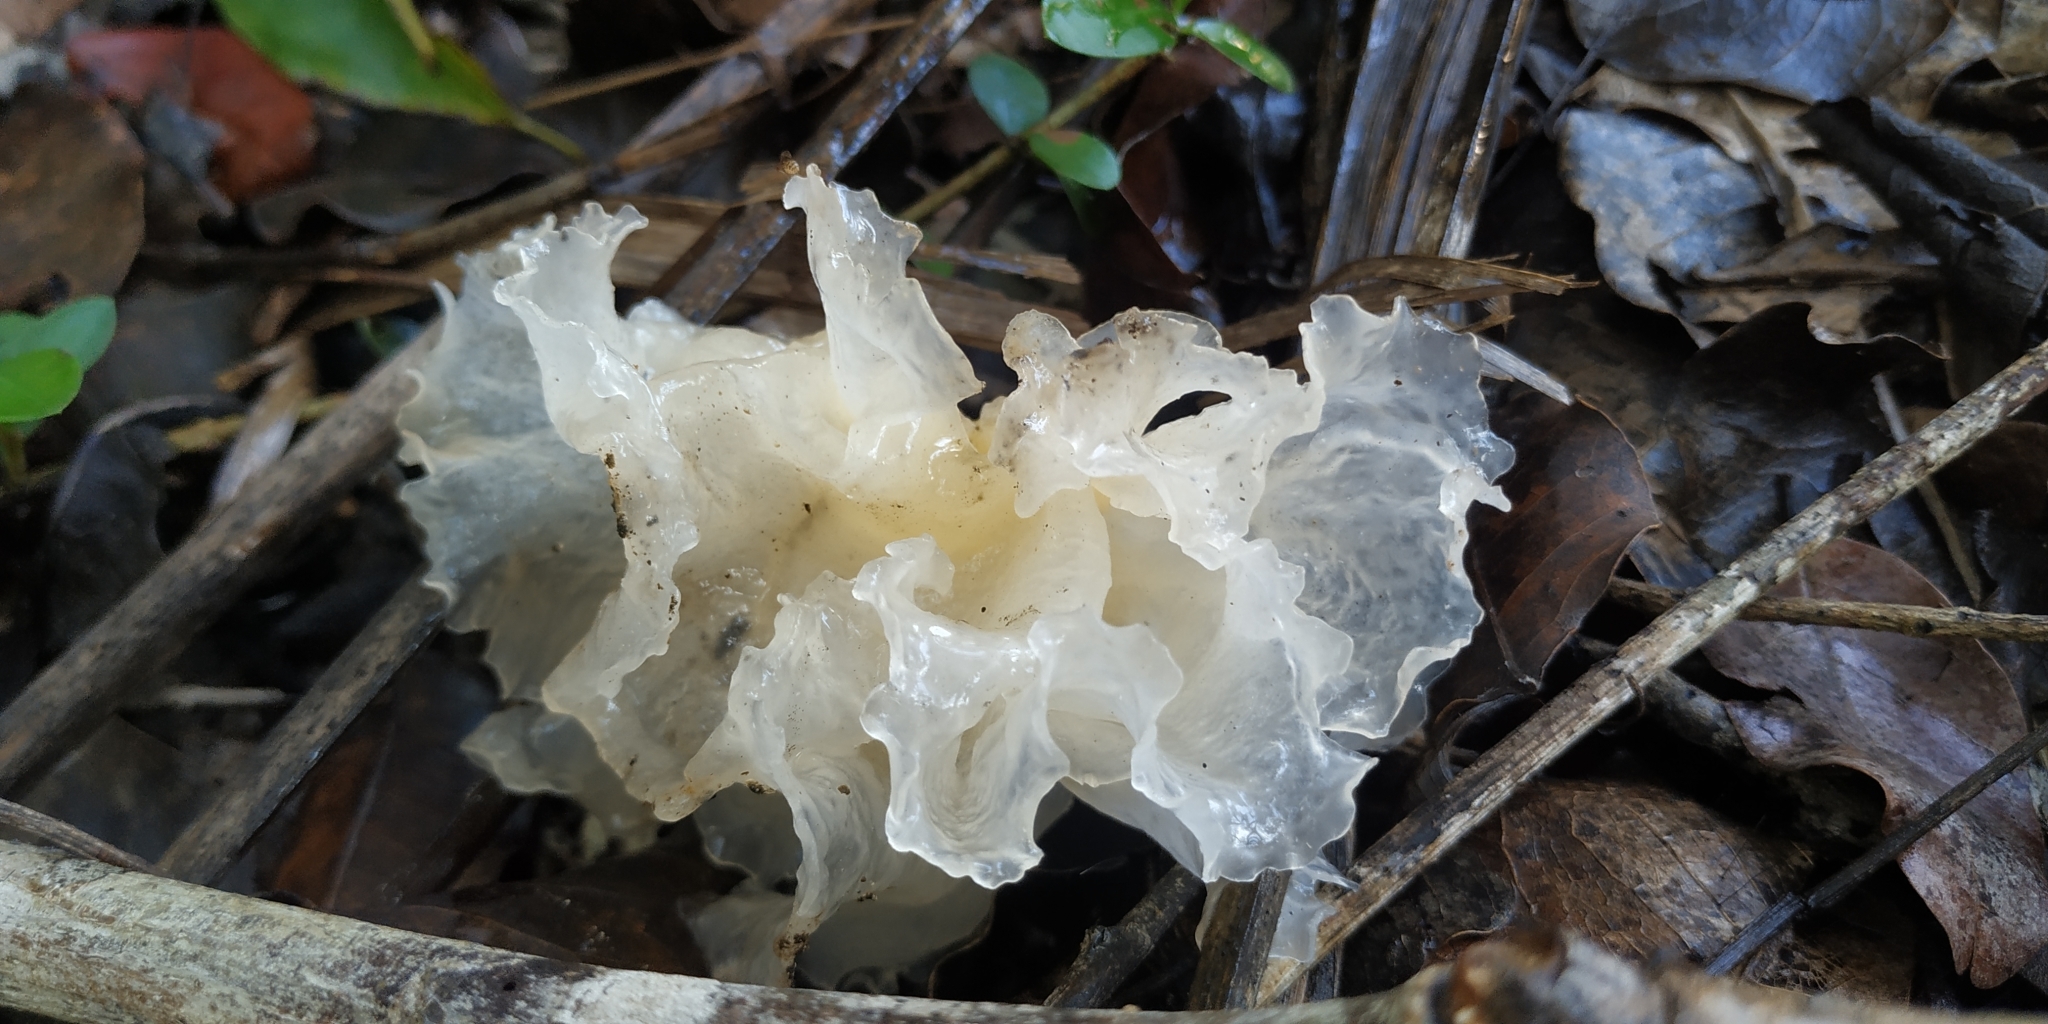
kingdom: Fungi
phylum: Basidiomycota
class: Tremellomycetes
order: Tremellales
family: Tremellaceae
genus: Tremella
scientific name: Tremella fuciformis
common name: Snow fungus
